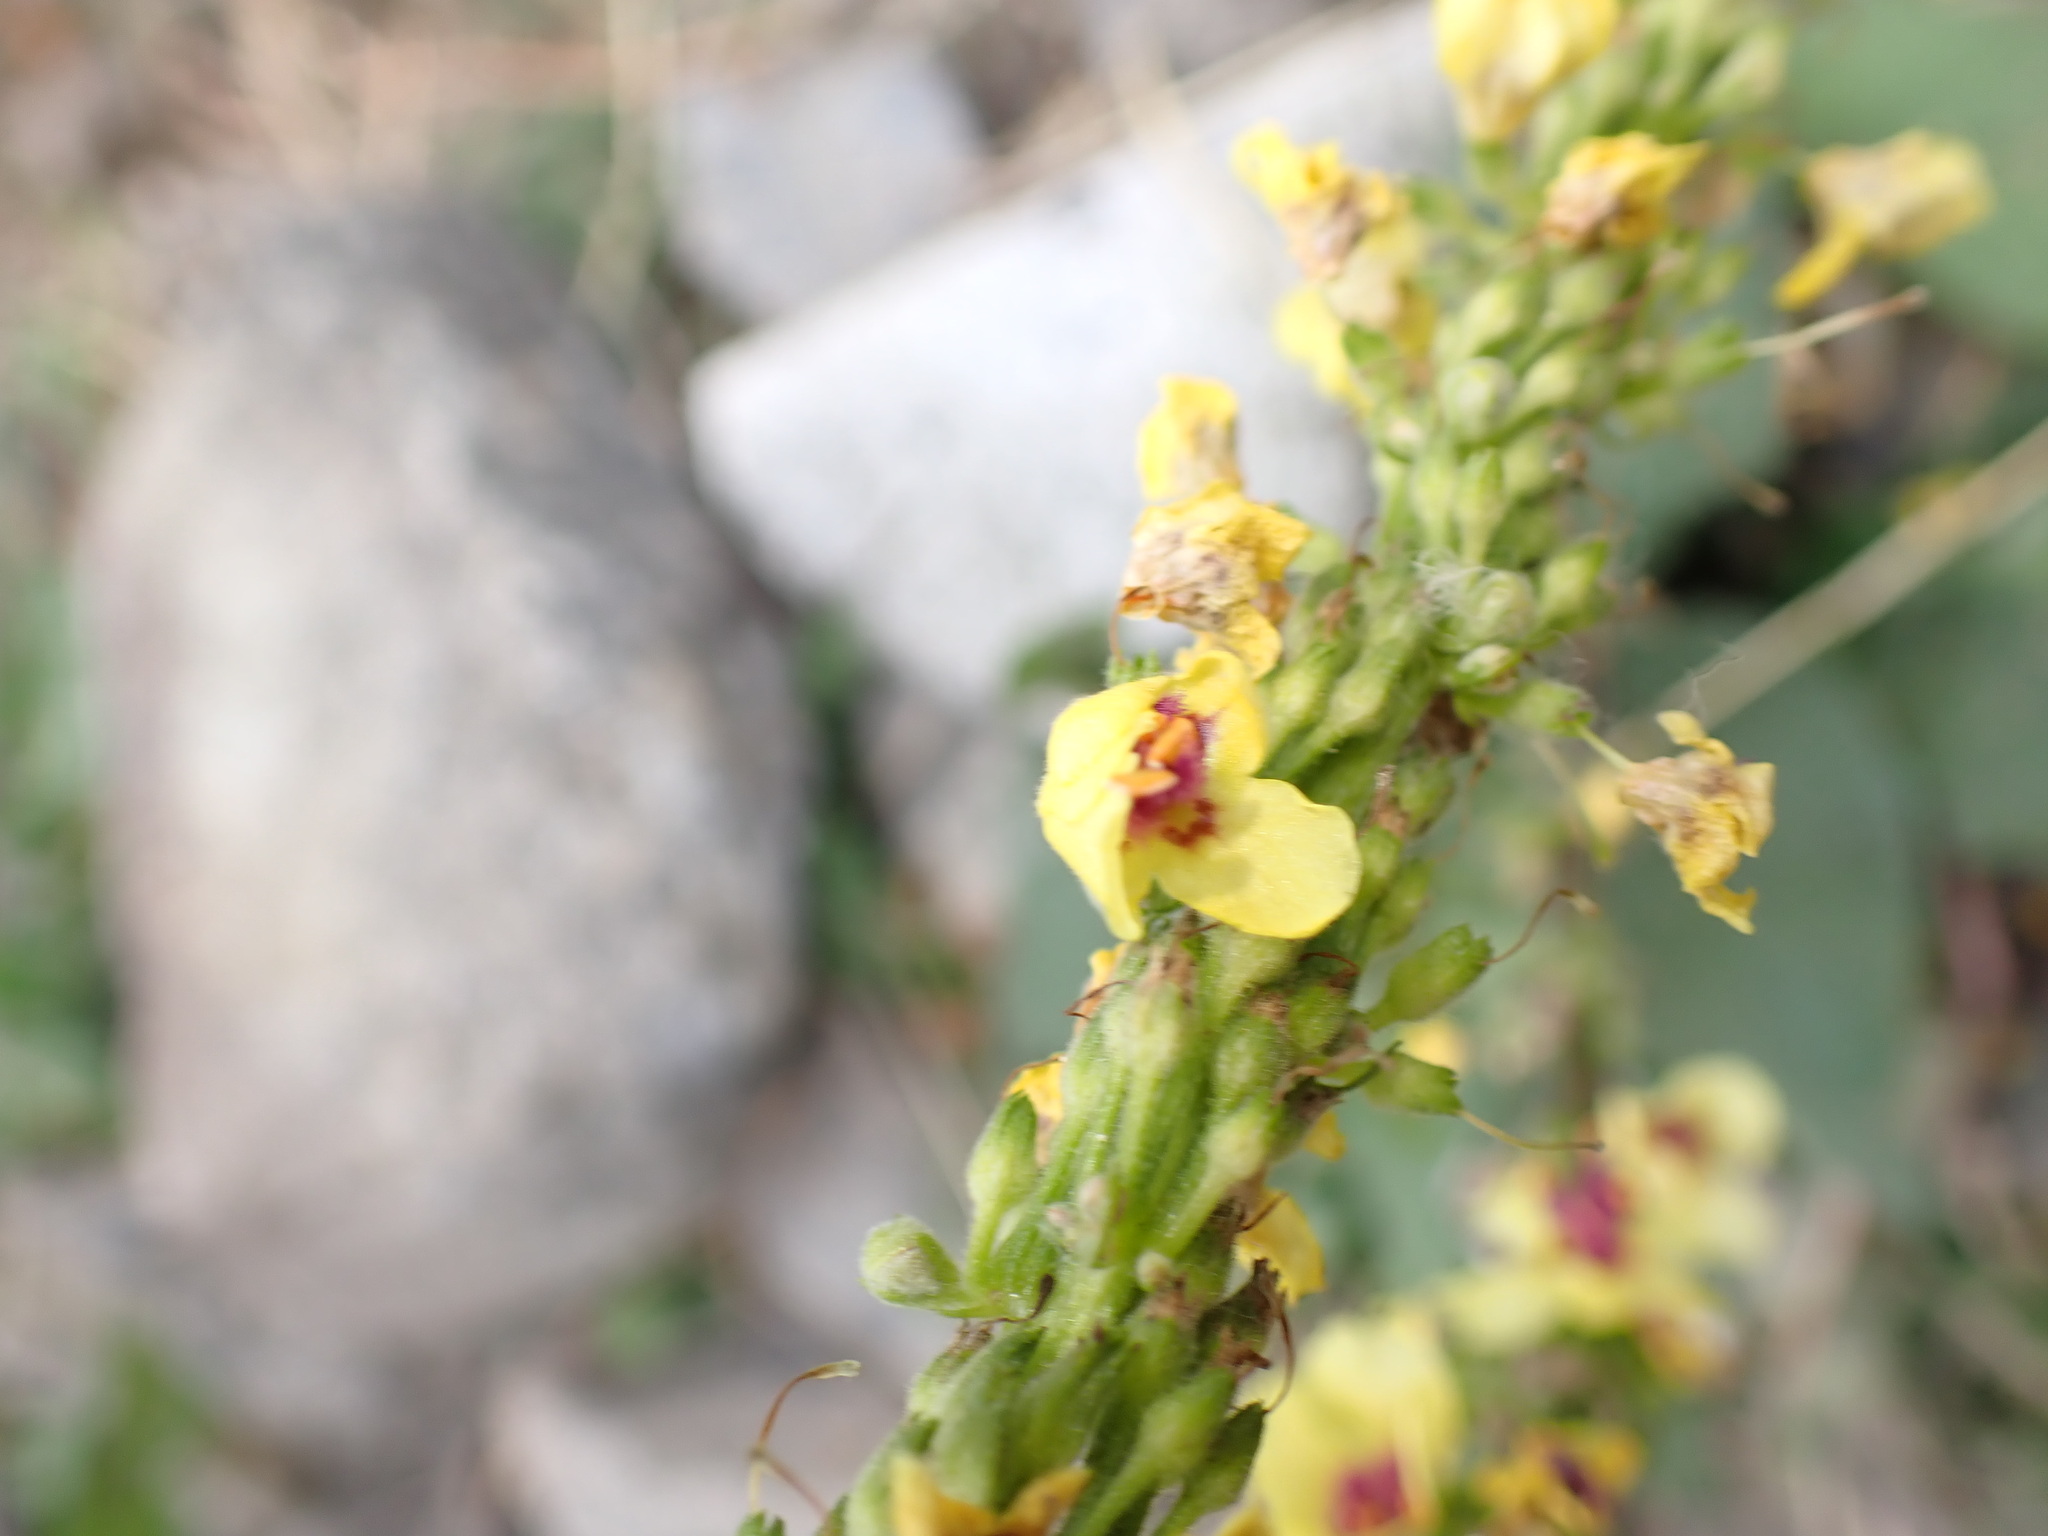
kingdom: Plantae
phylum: Tracheophyta
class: Magnoliopsida
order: Lamiales
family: Scrophulariaceae
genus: Verbascum
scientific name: Verbascum nigrum
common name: Dark mullein
